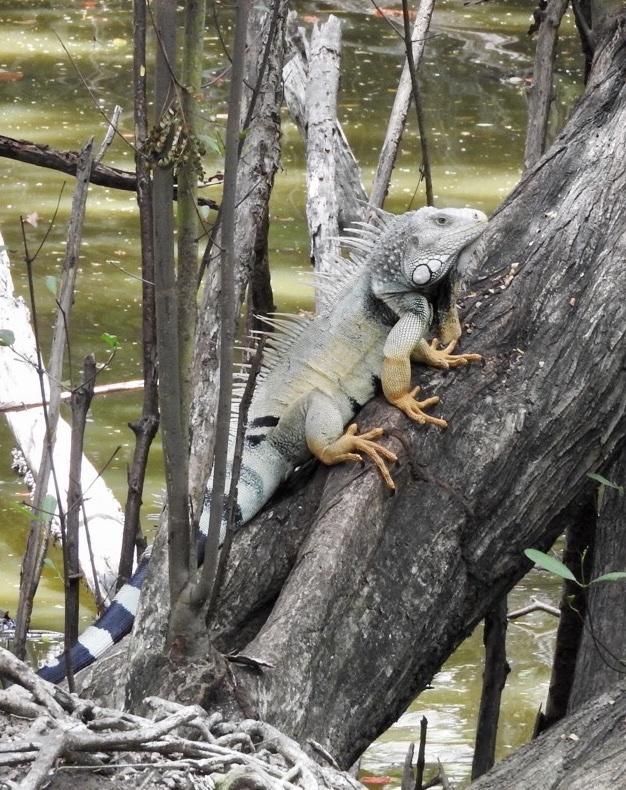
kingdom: Animalia
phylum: Chordata
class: Squamata
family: Iguanidae
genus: Iguana
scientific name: Iguana iguana
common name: Green iguana
